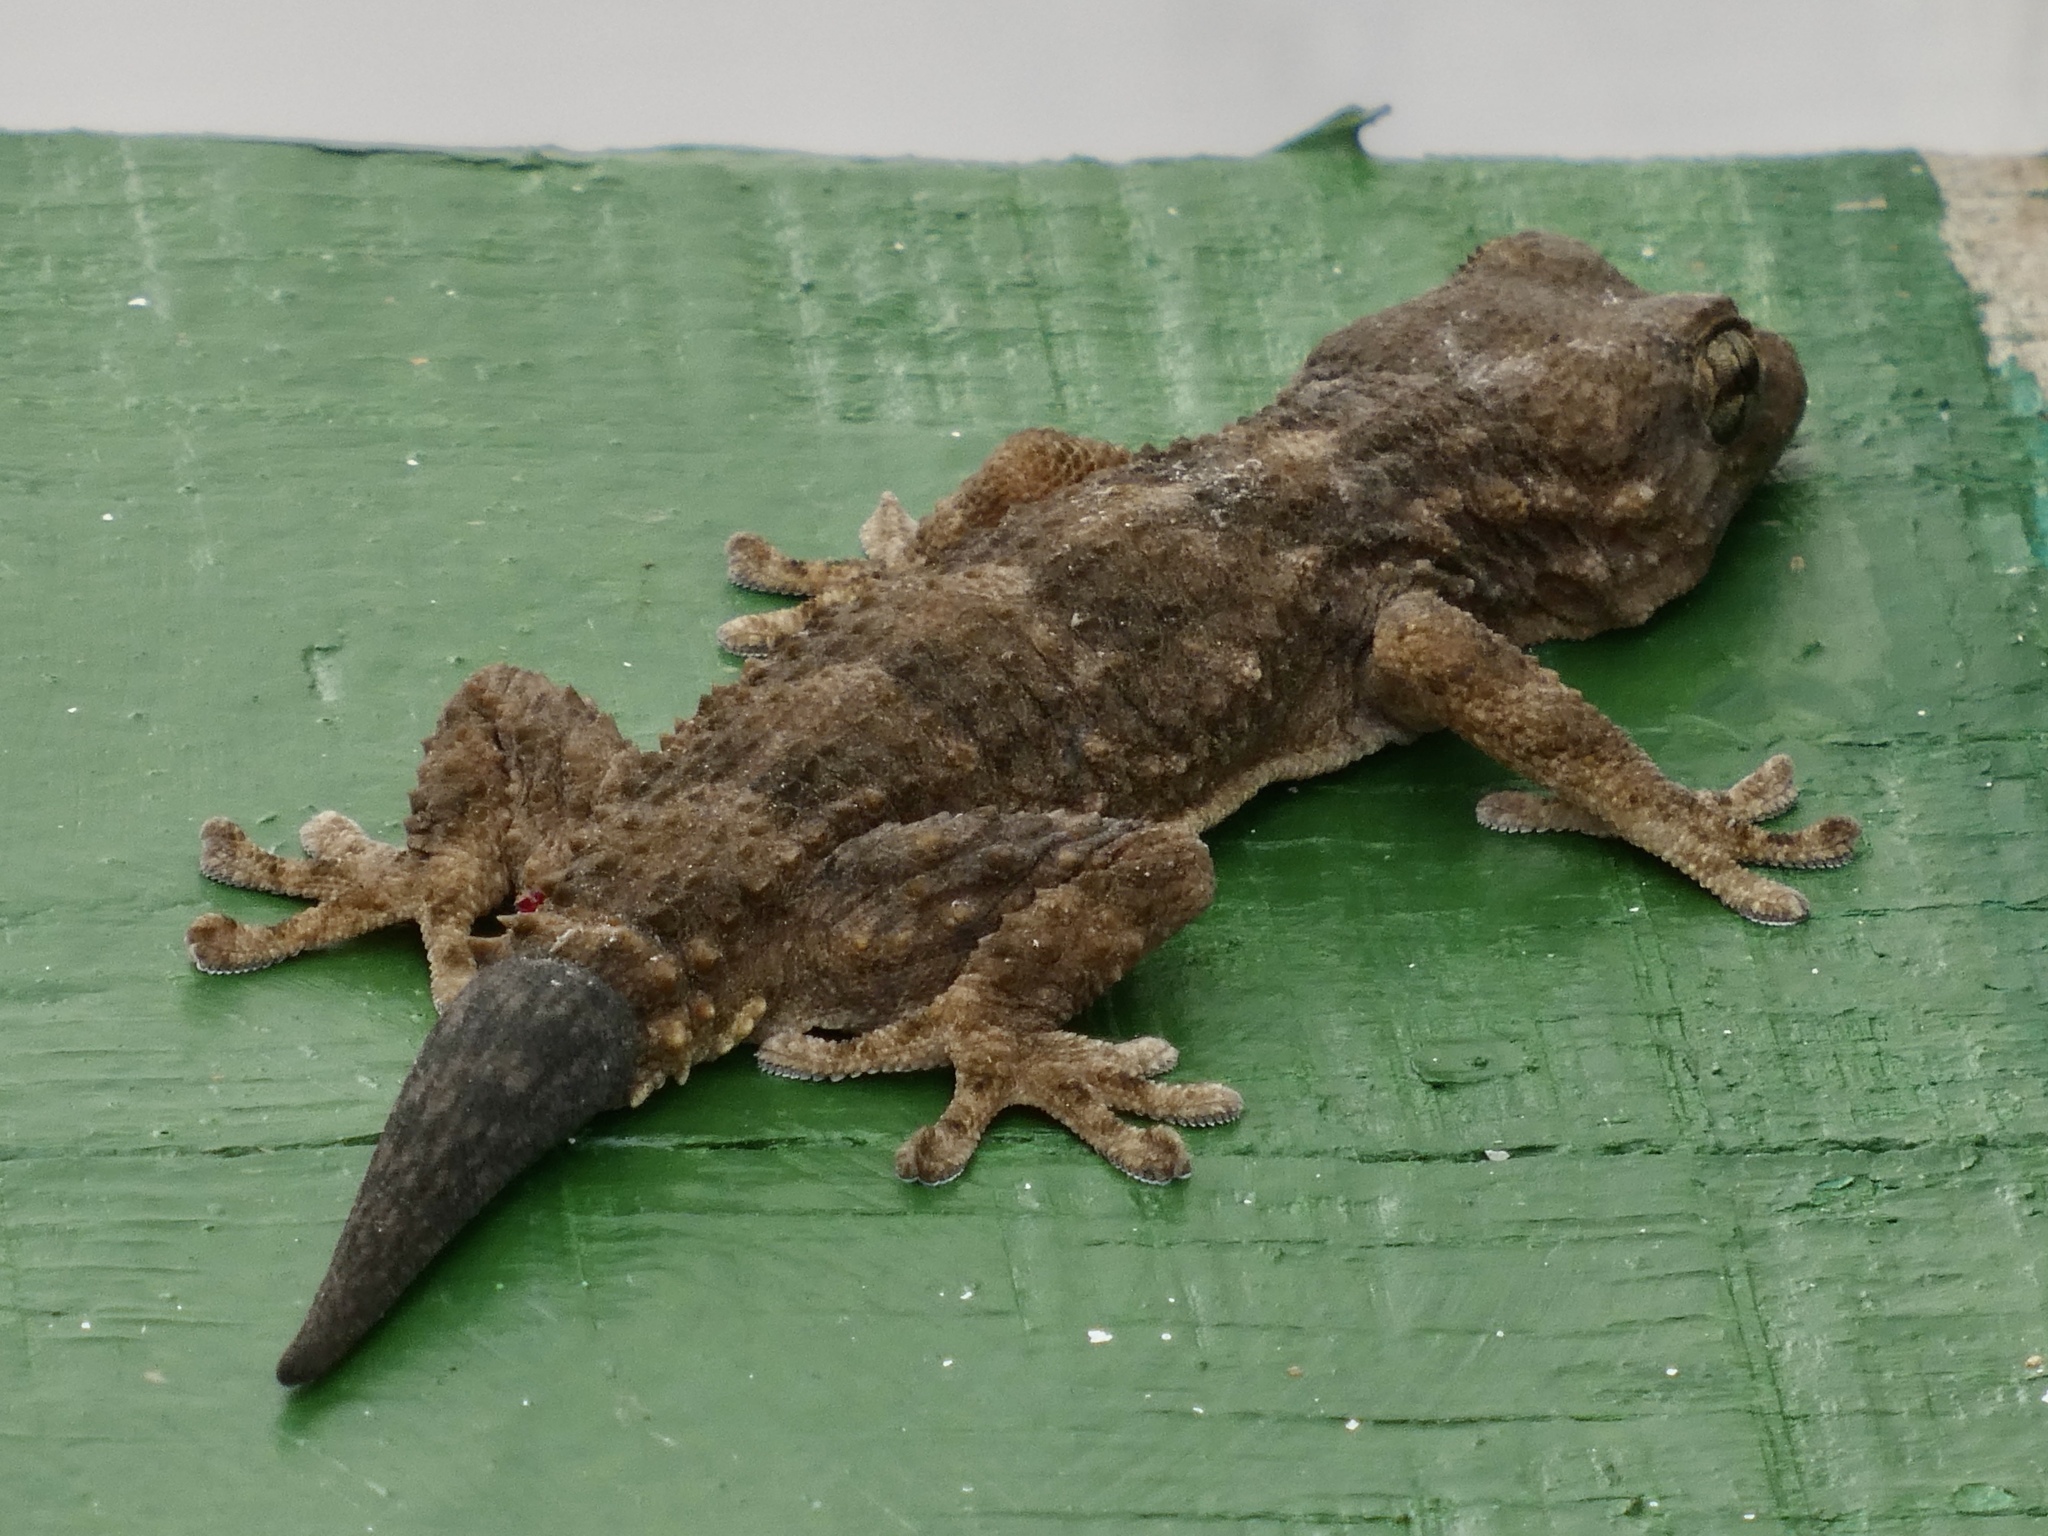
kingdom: Animalia
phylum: Chordata
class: Squamata
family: Phyllodactylidae
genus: Tarentola
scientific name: Tarentola boettgeri
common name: Boettger's wall gecko
